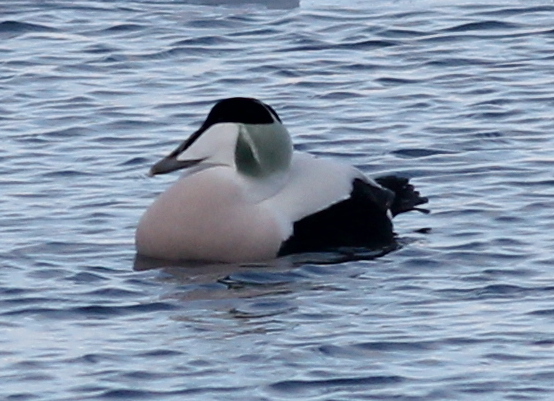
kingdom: Animalia
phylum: Chordata
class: Aves
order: Anseriformes
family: Anatidae
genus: Somateria
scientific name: Somateria mollissima
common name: Common eider
